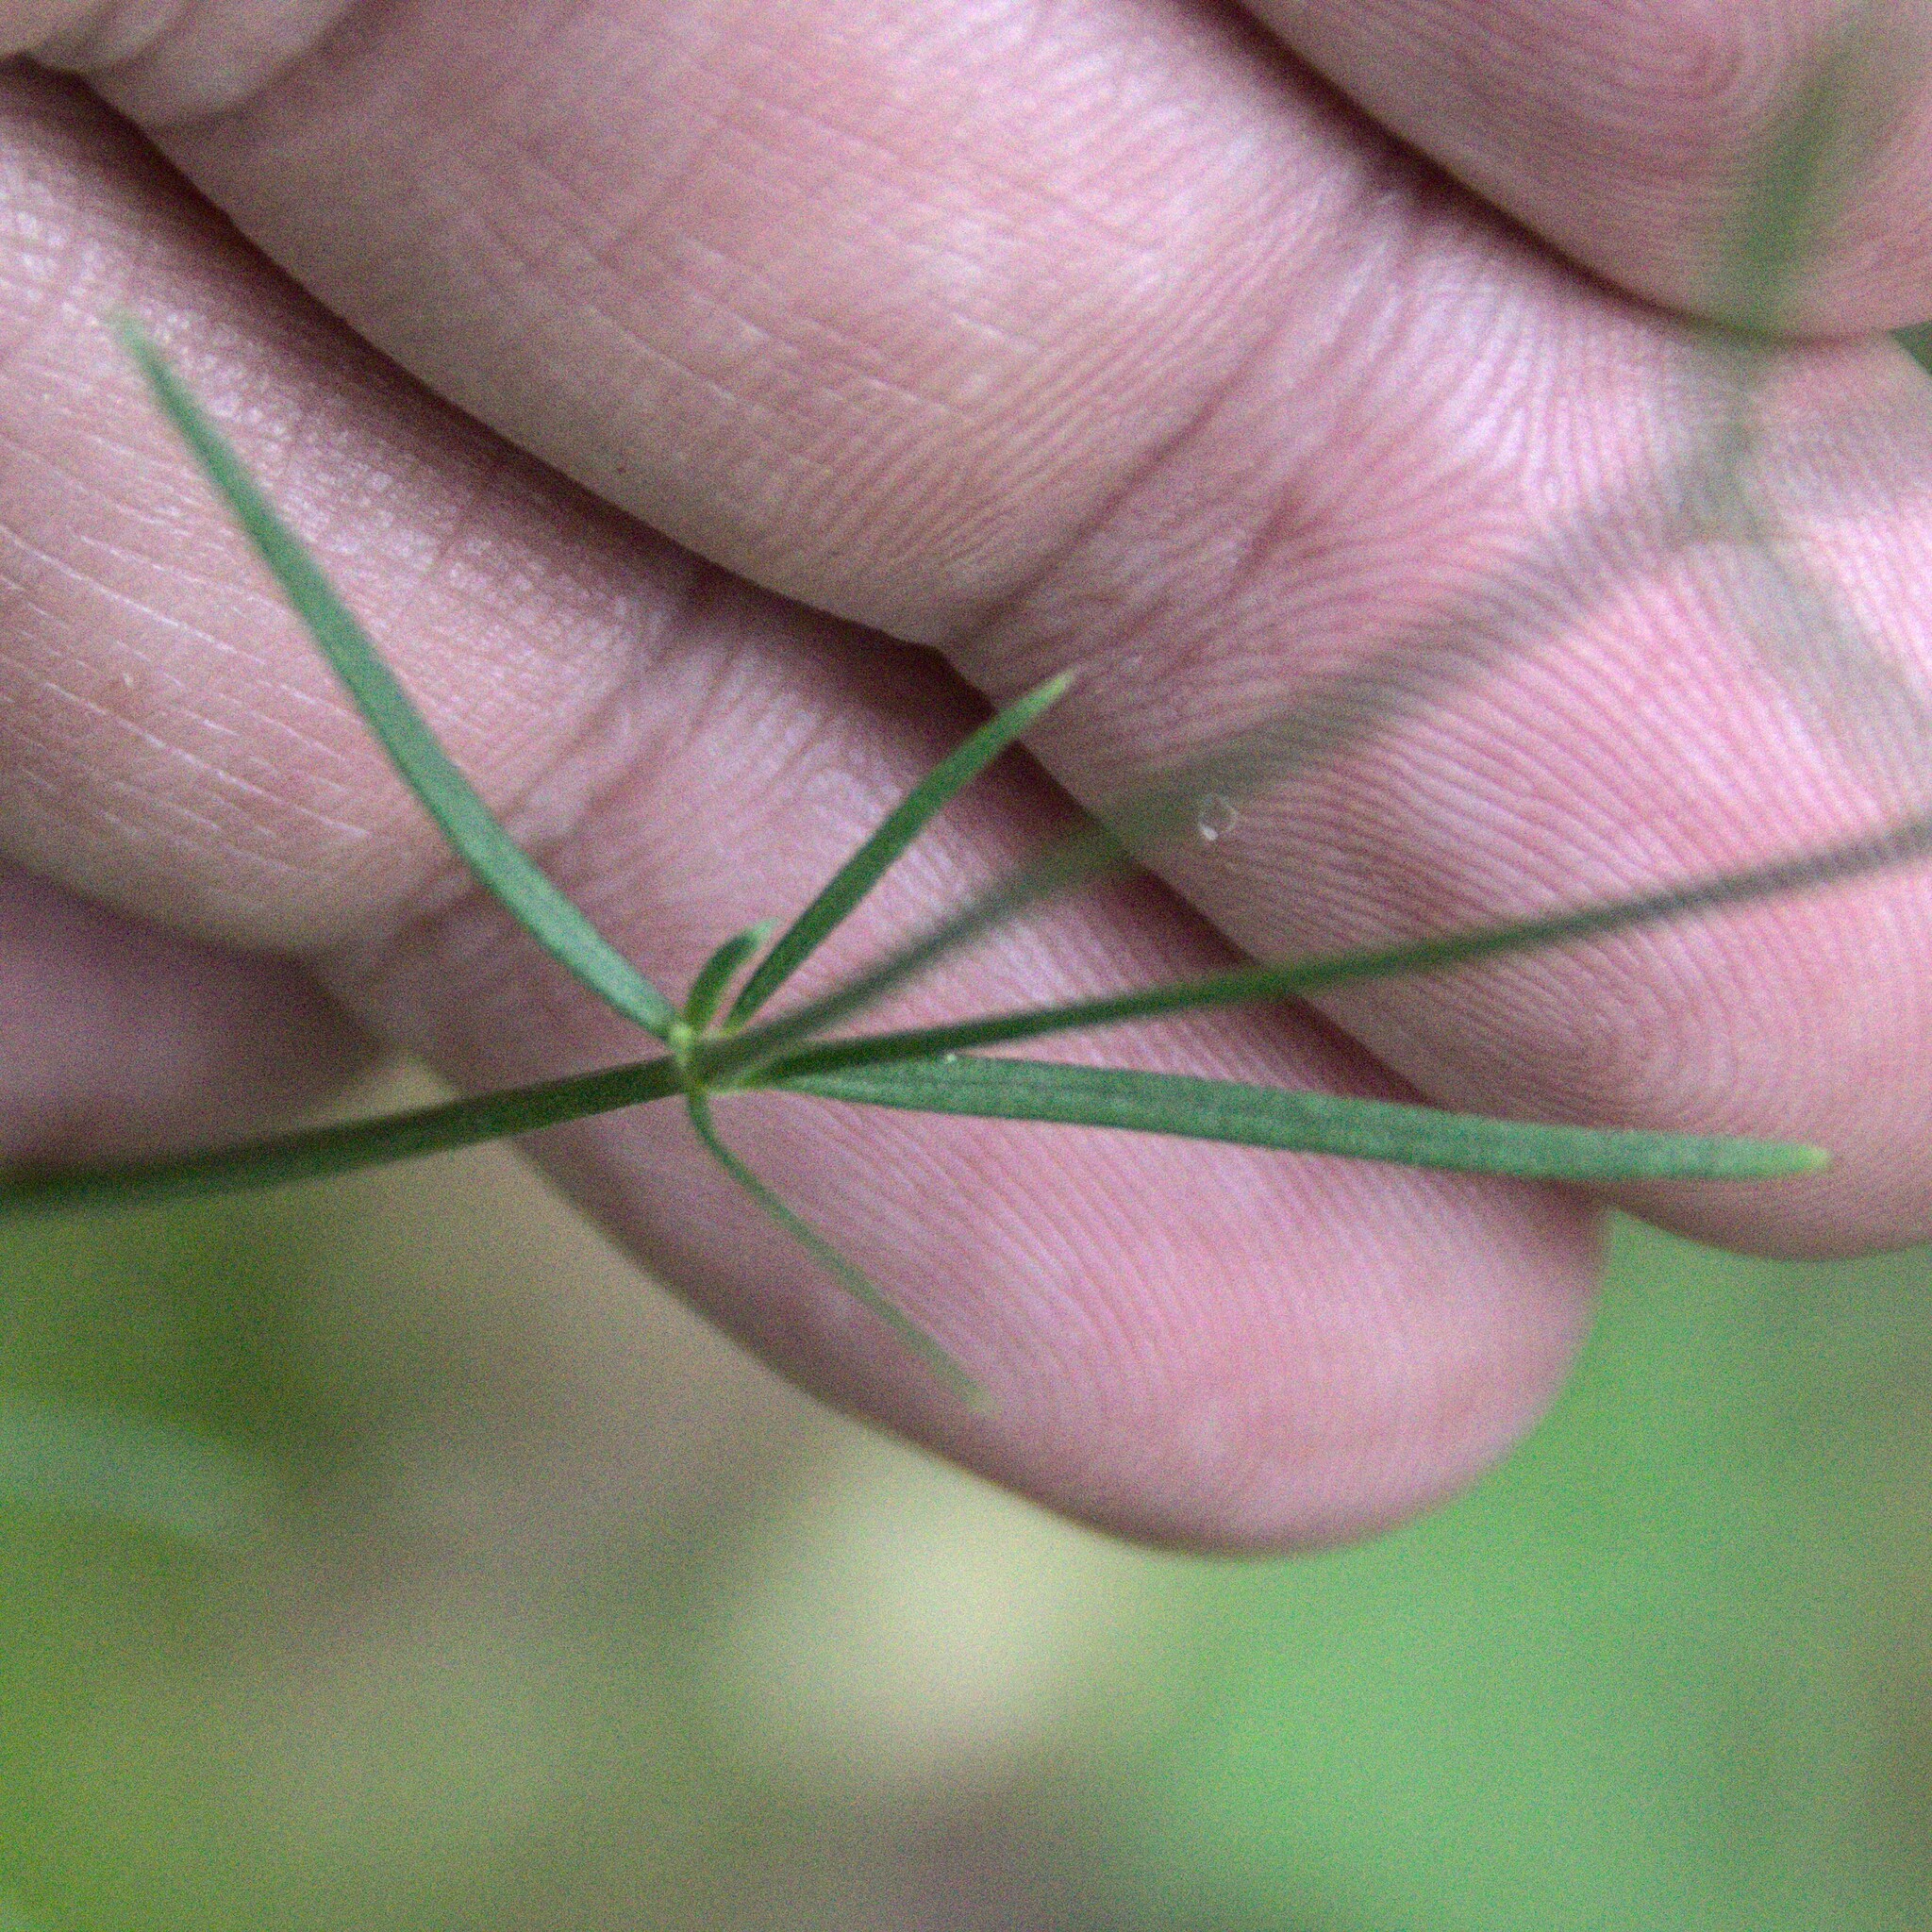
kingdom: Plantae
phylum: Tracheophyta
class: Magnoliopsida
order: Gentianales
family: Rubiaceae
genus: Asperula
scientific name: Asperula tinctoria
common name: Dyer's woodruff
